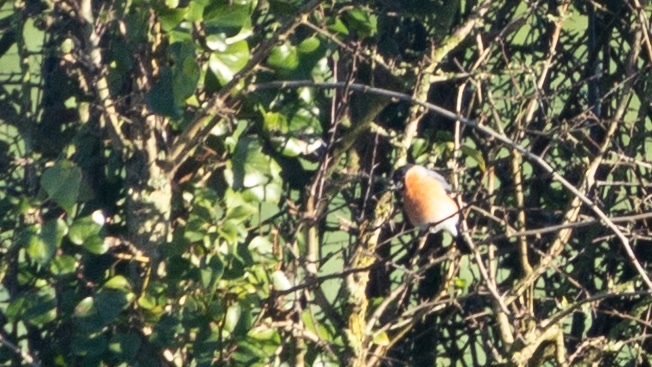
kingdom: Animalia
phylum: Chordata
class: Aves
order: Passeriformes
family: Fringillidae
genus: Pyrrhula
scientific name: Pyrrhula pyrrhula
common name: Eurasian bullfinch
